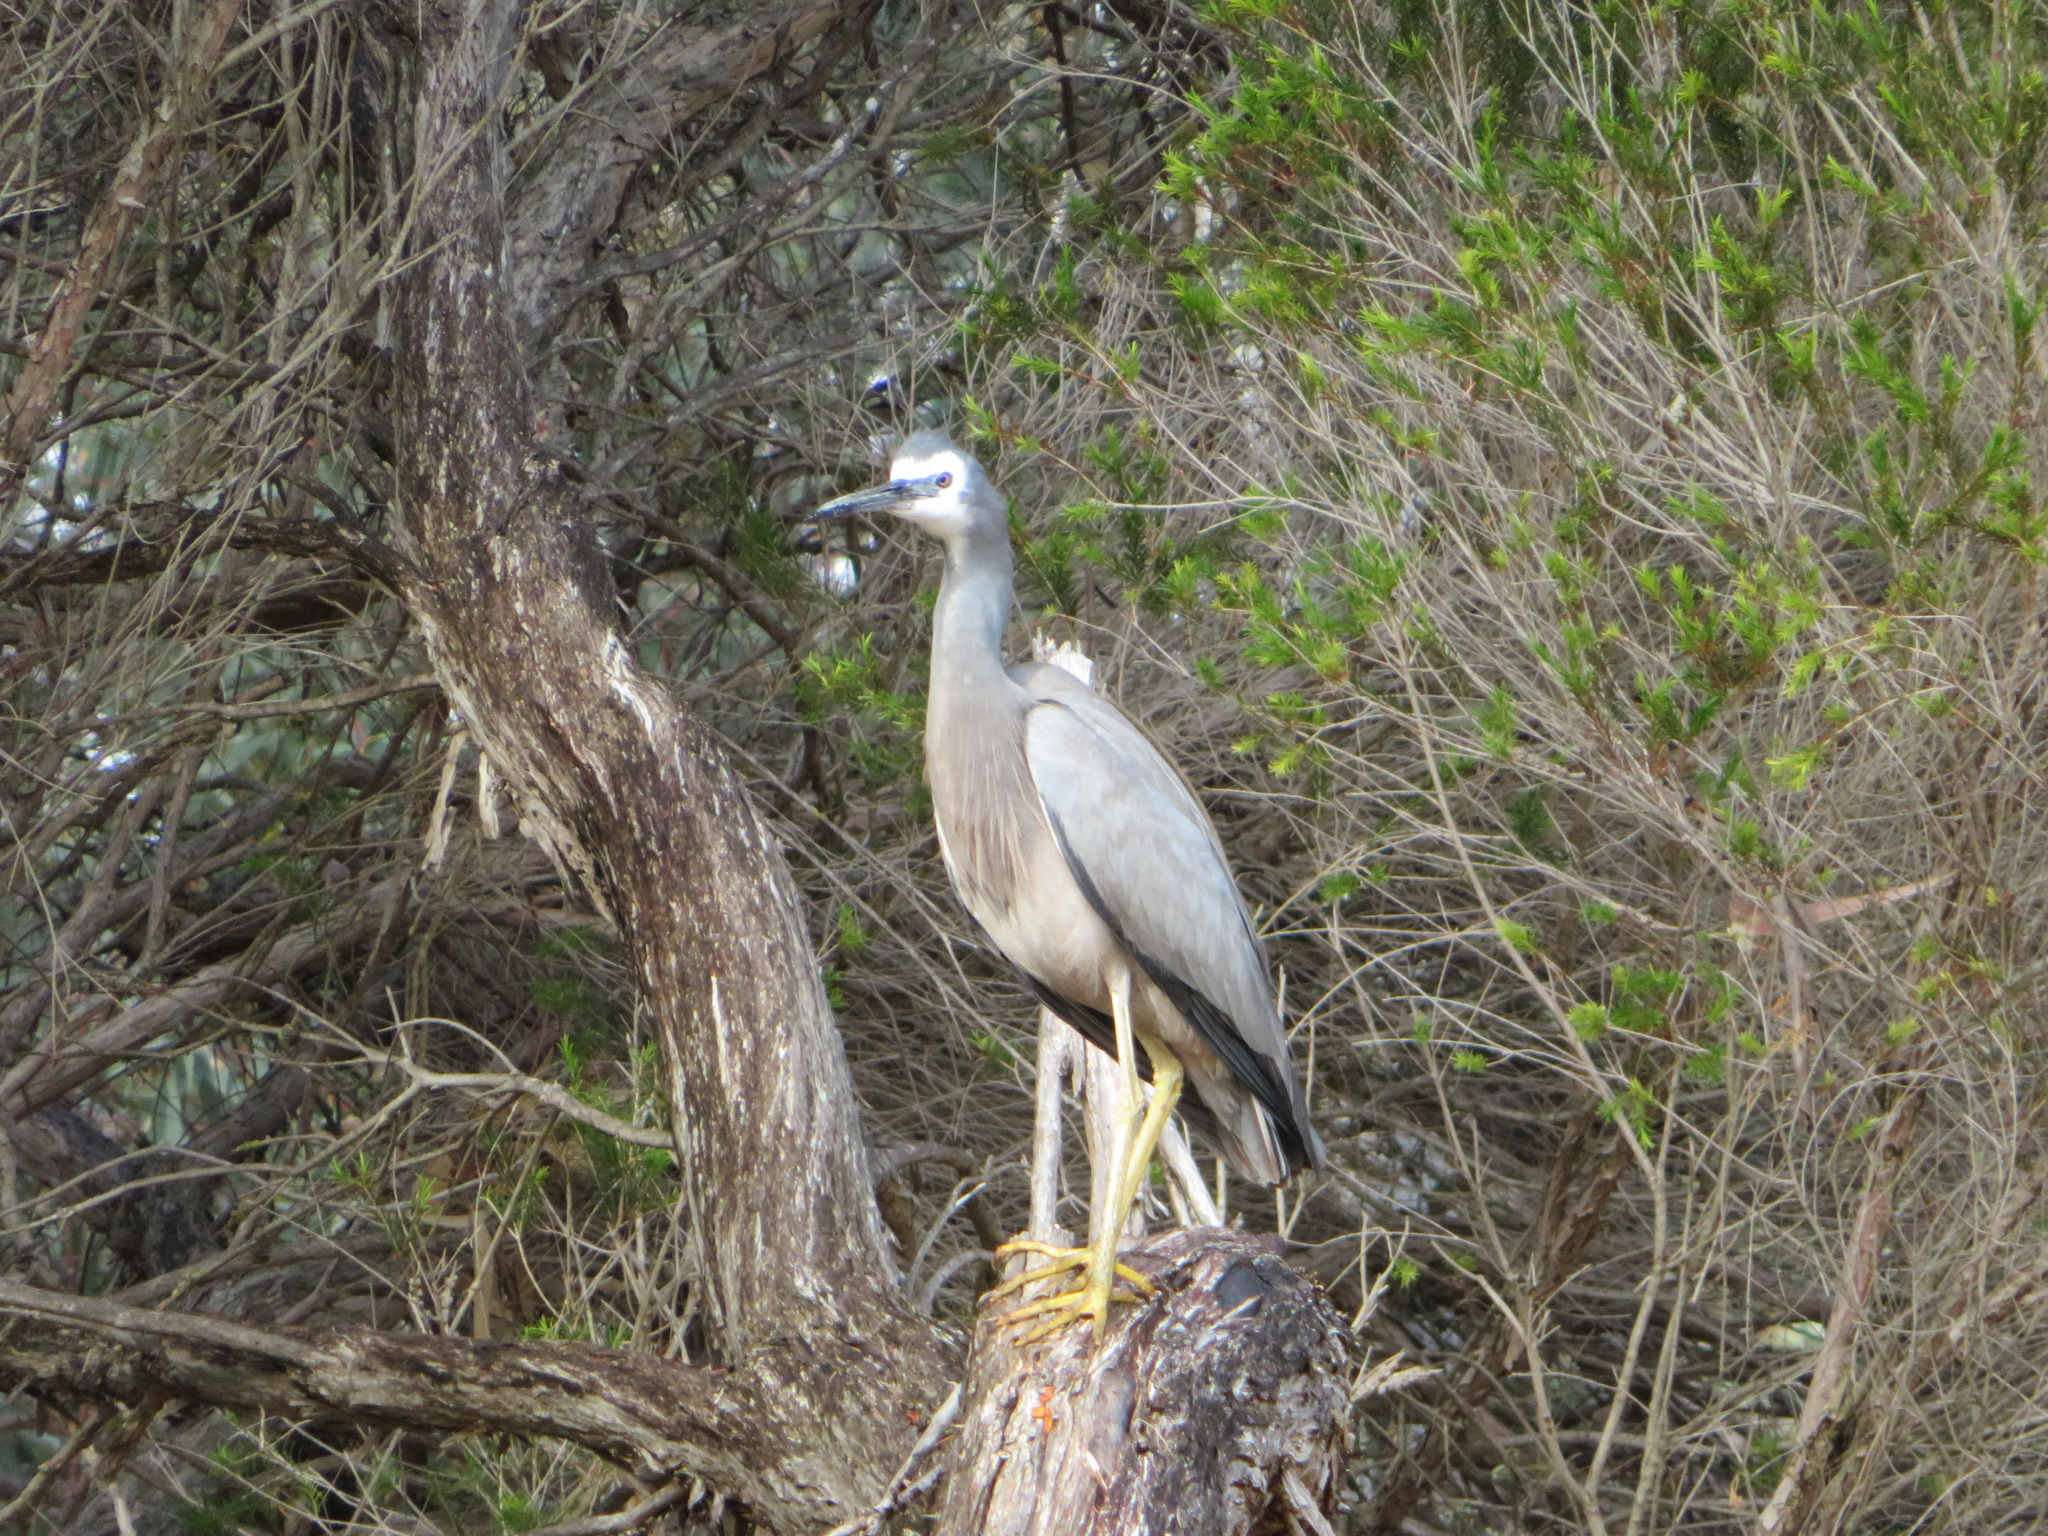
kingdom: Animalia
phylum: Chordata
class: Aves
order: Pelecaniformes
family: Ardeidae
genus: Egretta
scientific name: Egretta novaehollandiae
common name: White-faced heron
